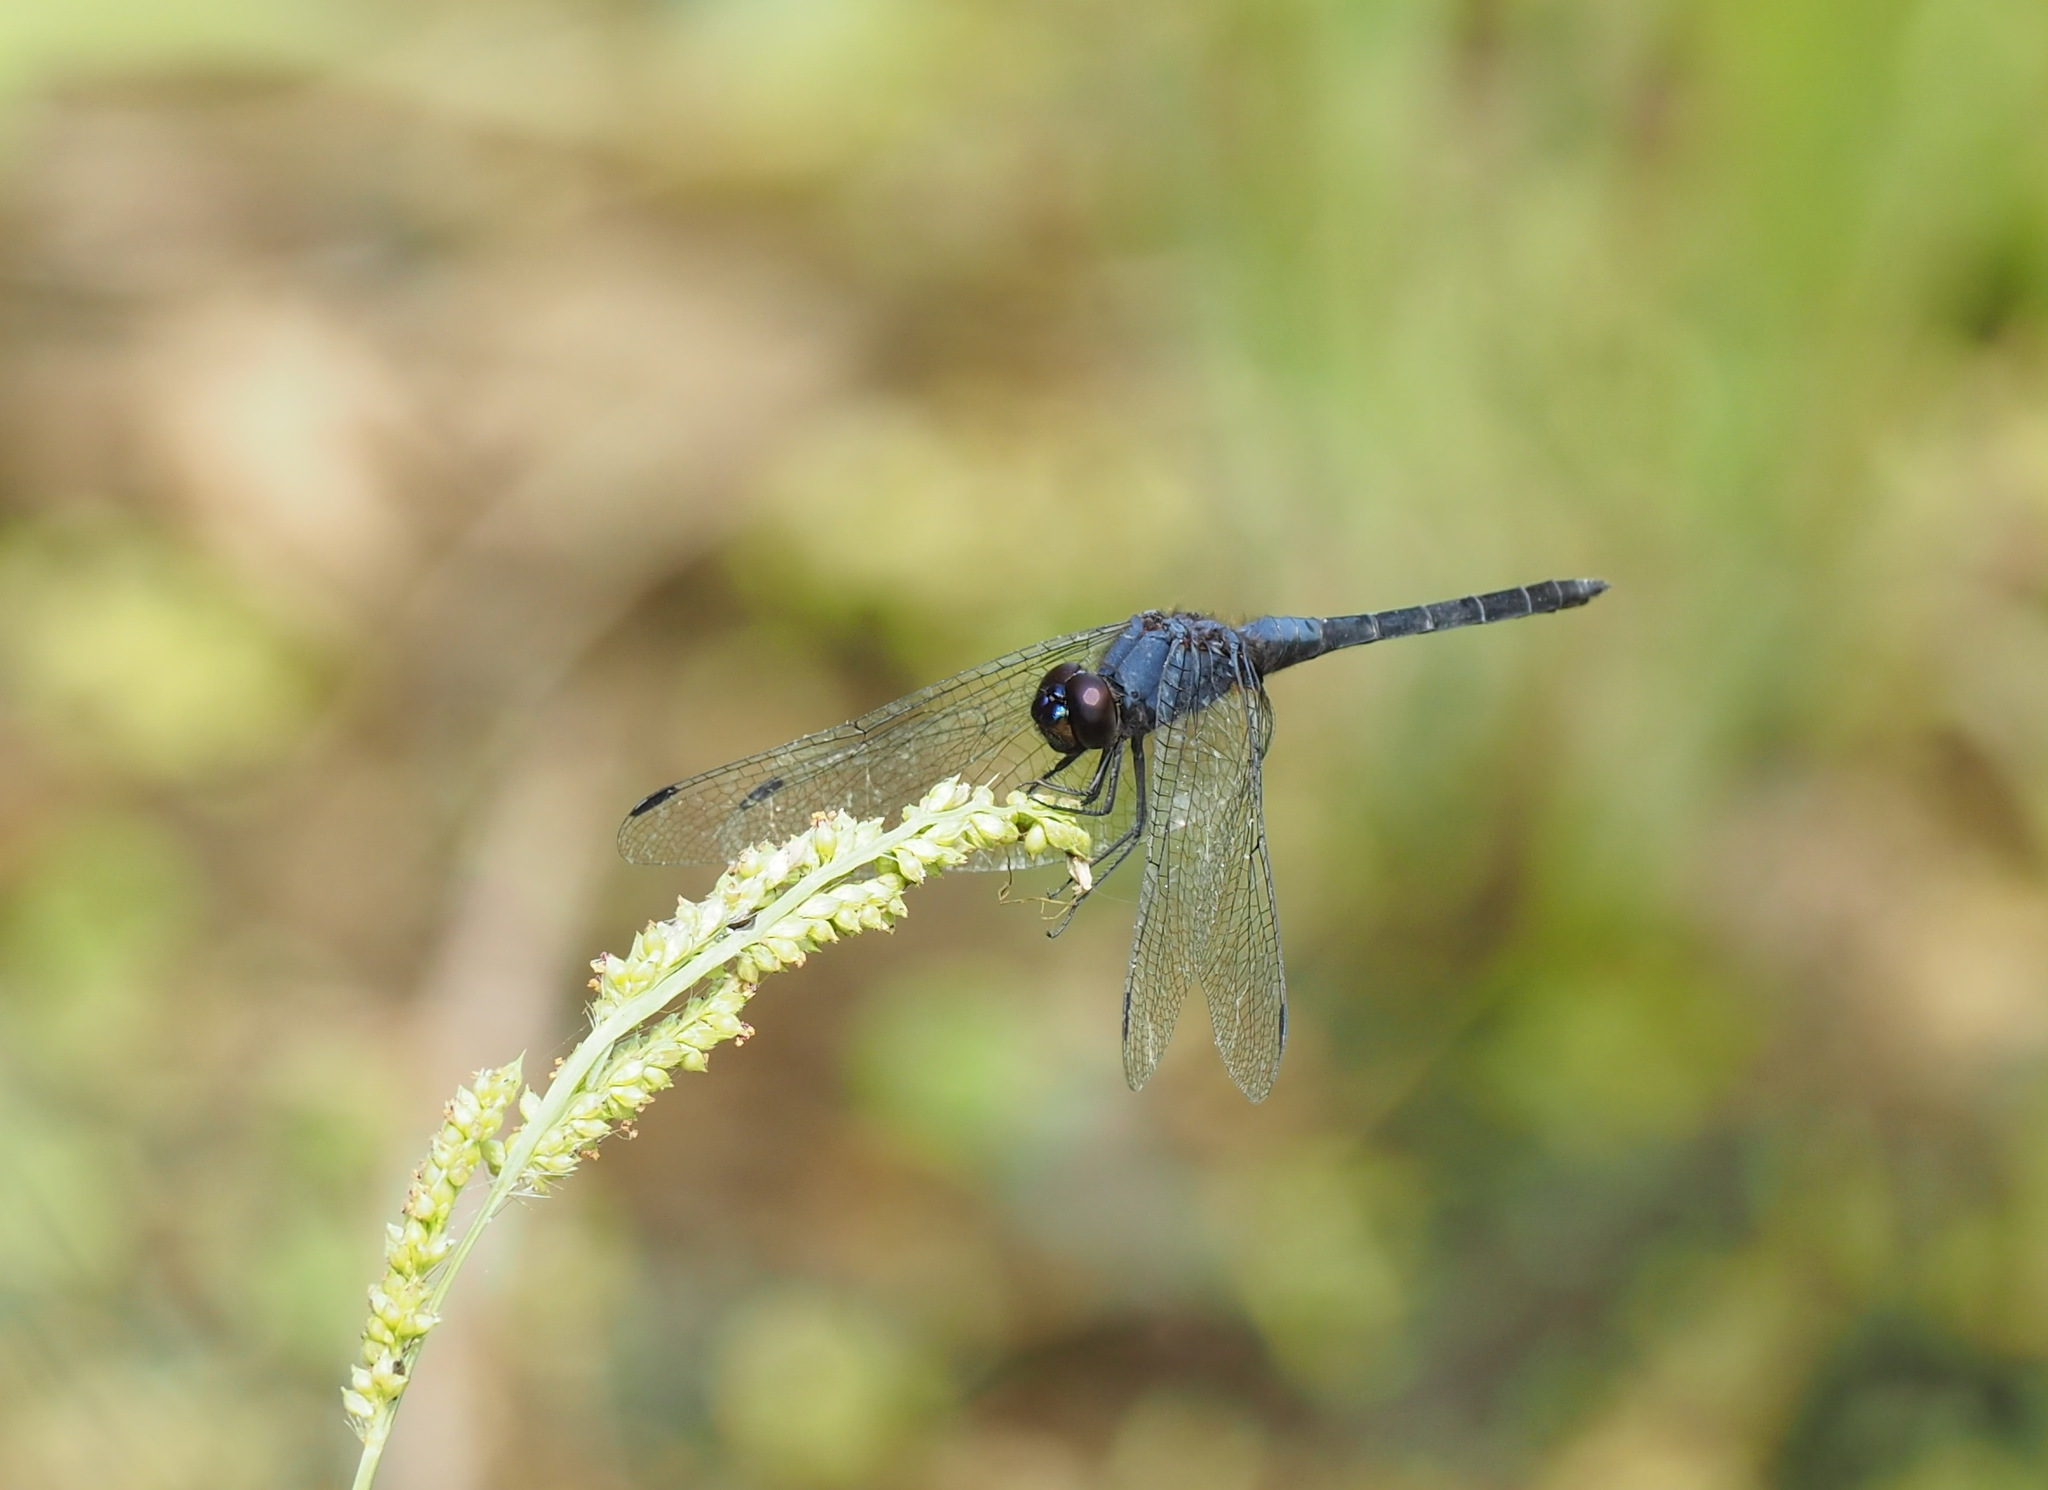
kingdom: Animalia
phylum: Arthropoda
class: Insecta
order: Odonata
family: Libellulidae
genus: Trithemis
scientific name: Trithemis festiva
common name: Indigo dropwing
